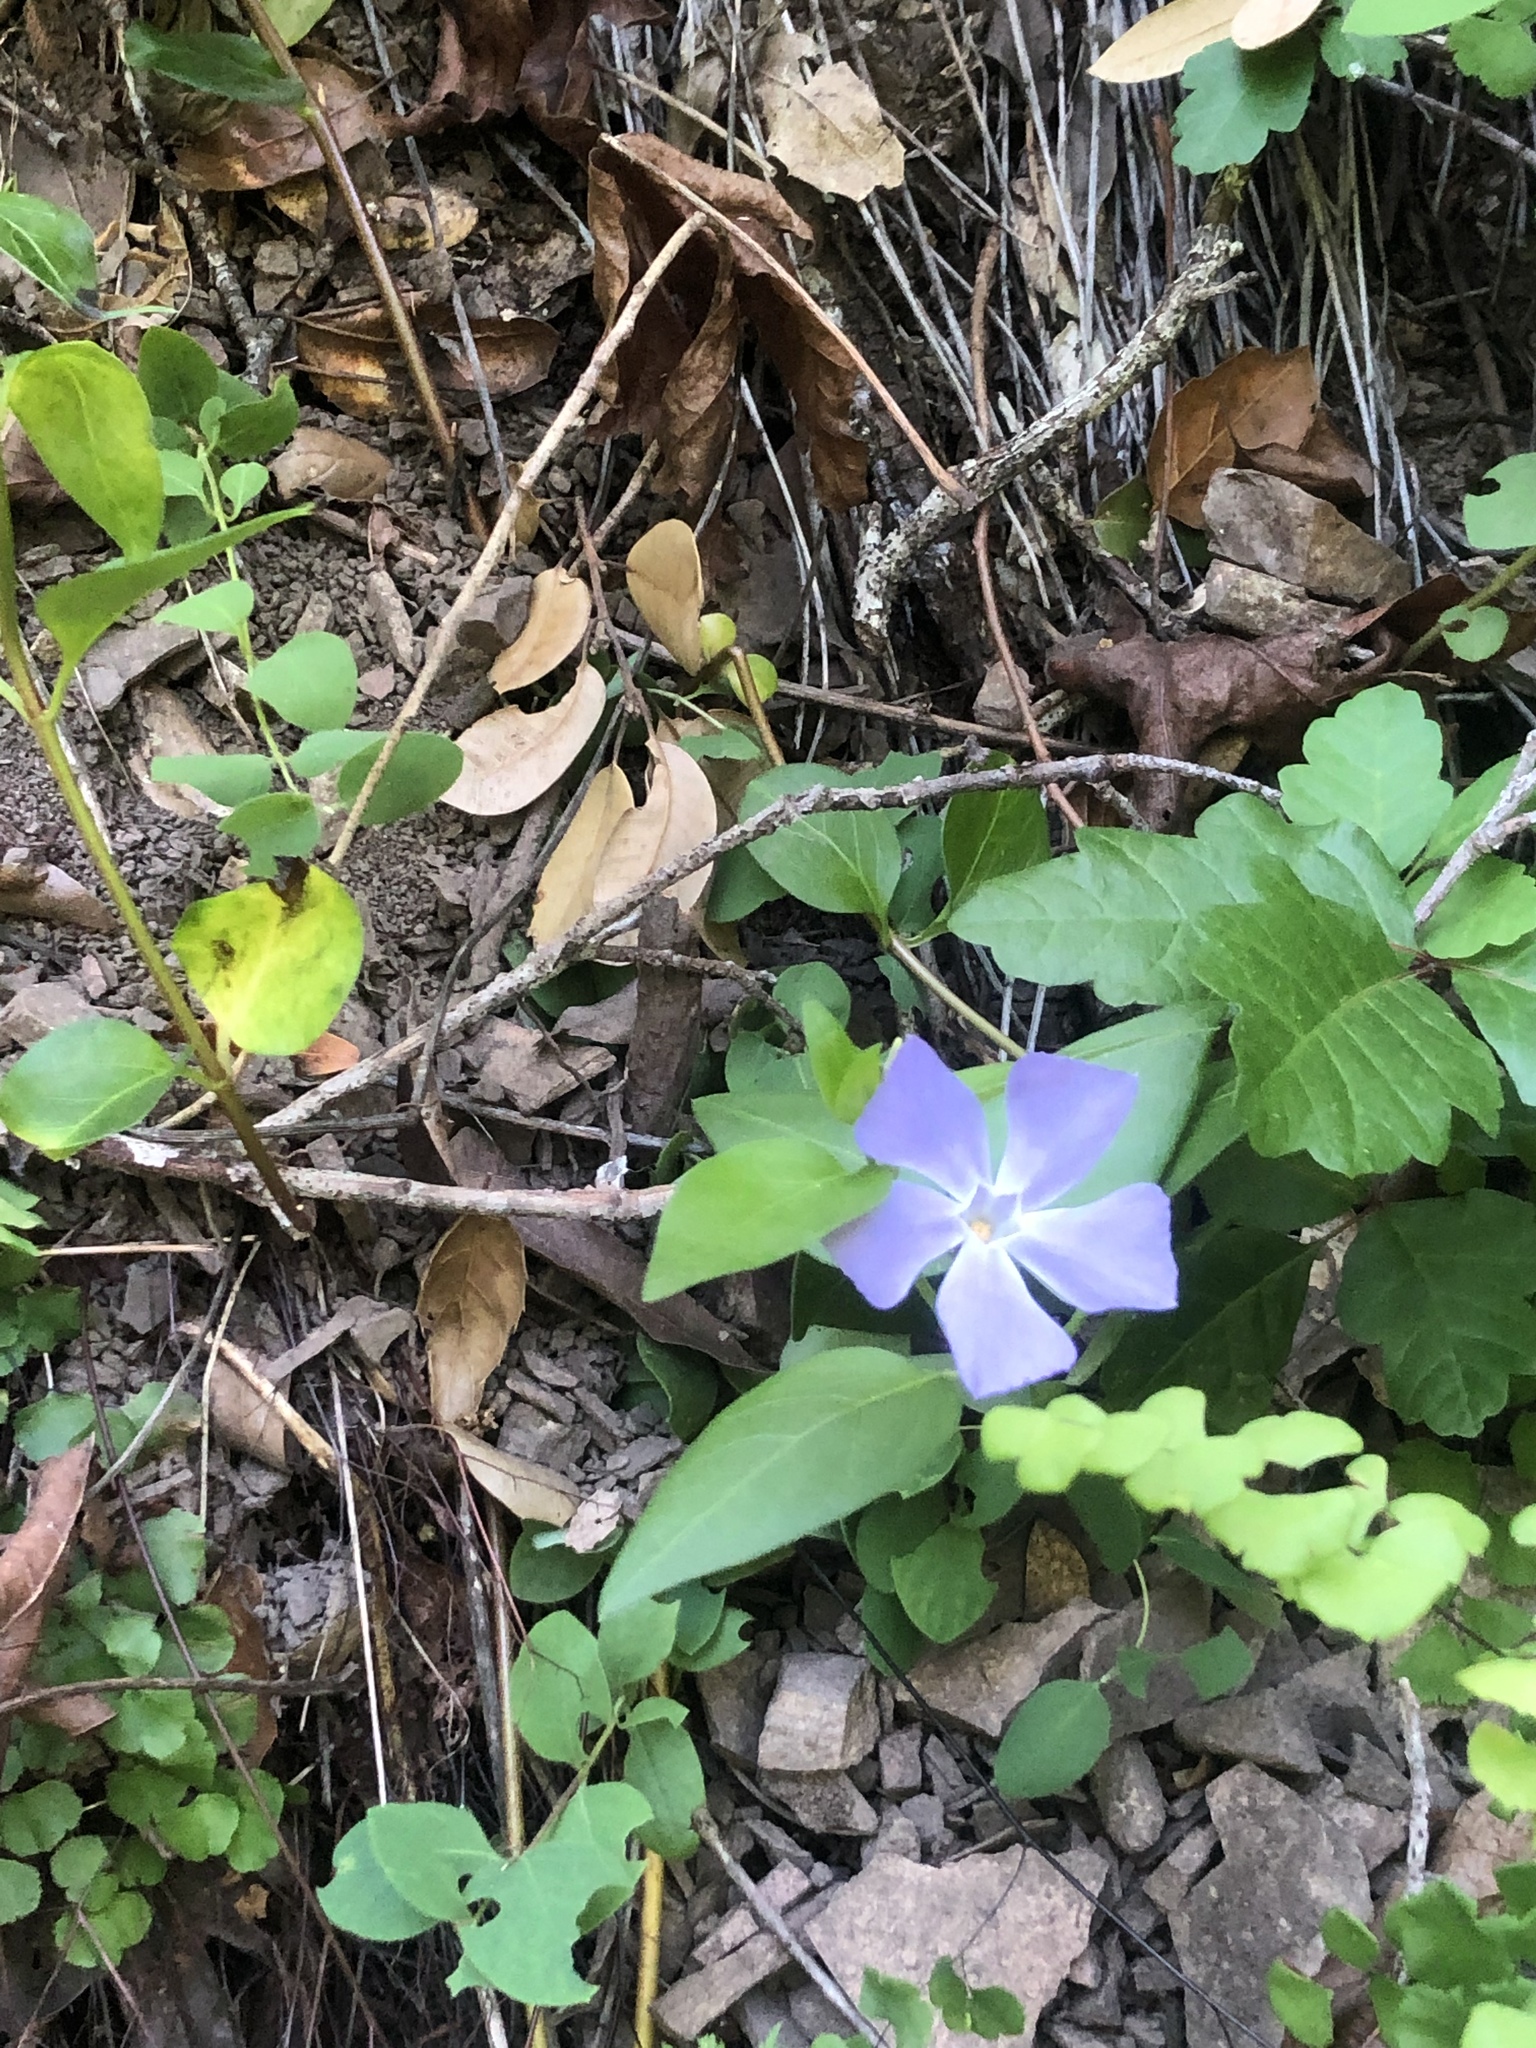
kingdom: Plantae
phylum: Tracheophyta
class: Magnoliopsida
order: Gentianales
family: Apocynaceae
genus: Vinca
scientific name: Vinca major
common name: Greater periwinkle
